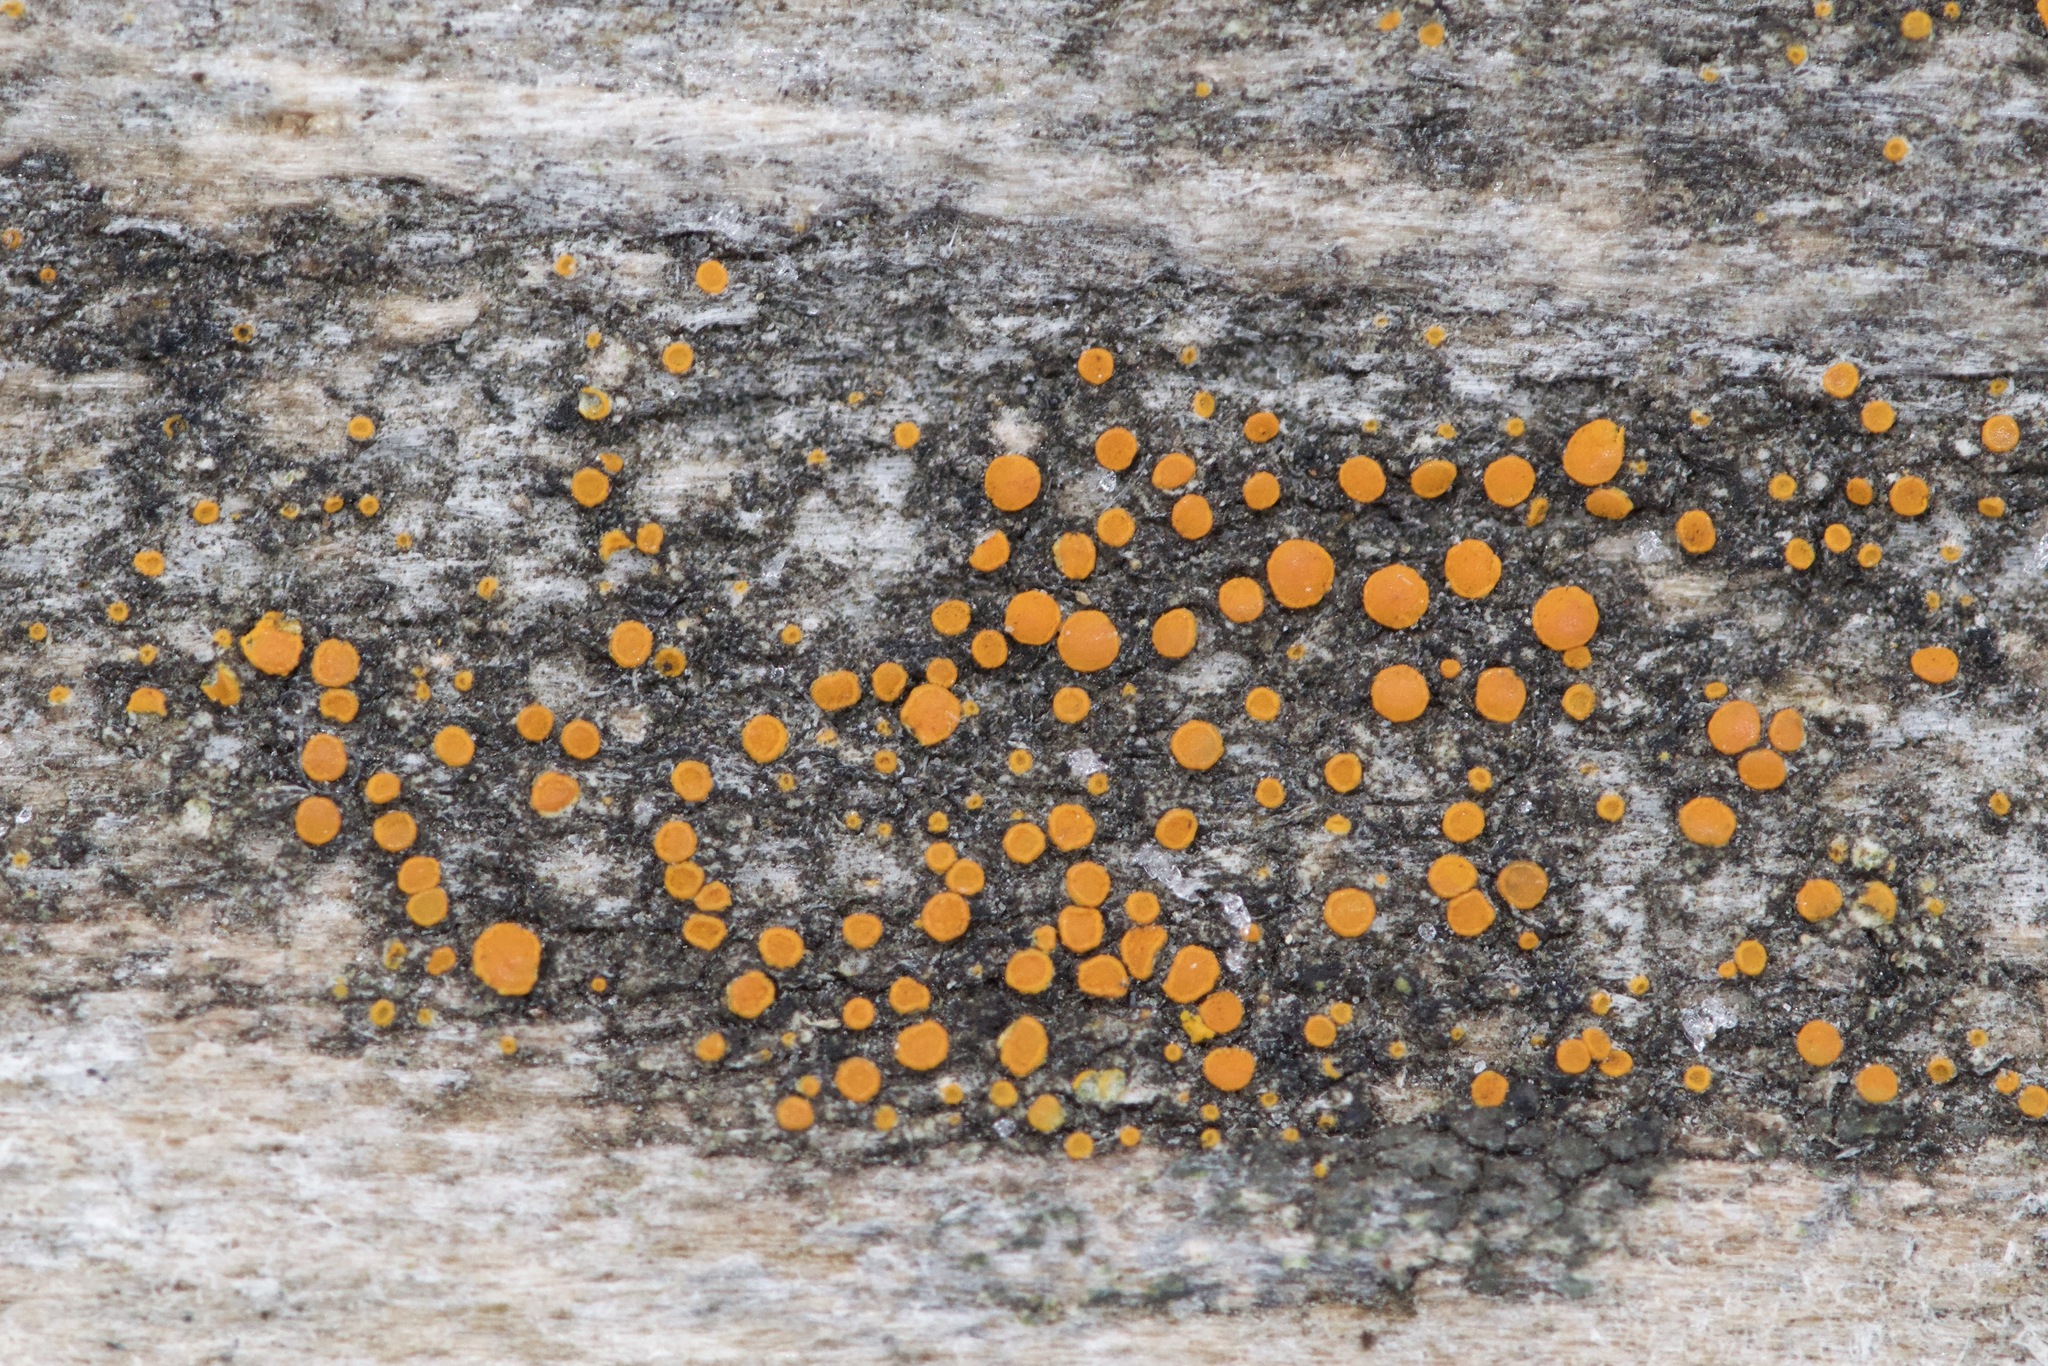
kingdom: Fungi
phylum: Ascomycota
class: Lecanoromycetes
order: Teloschistales
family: Teloschistaceae
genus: Athallia
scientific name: Athallia holocarpa
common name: Firedot lichen
